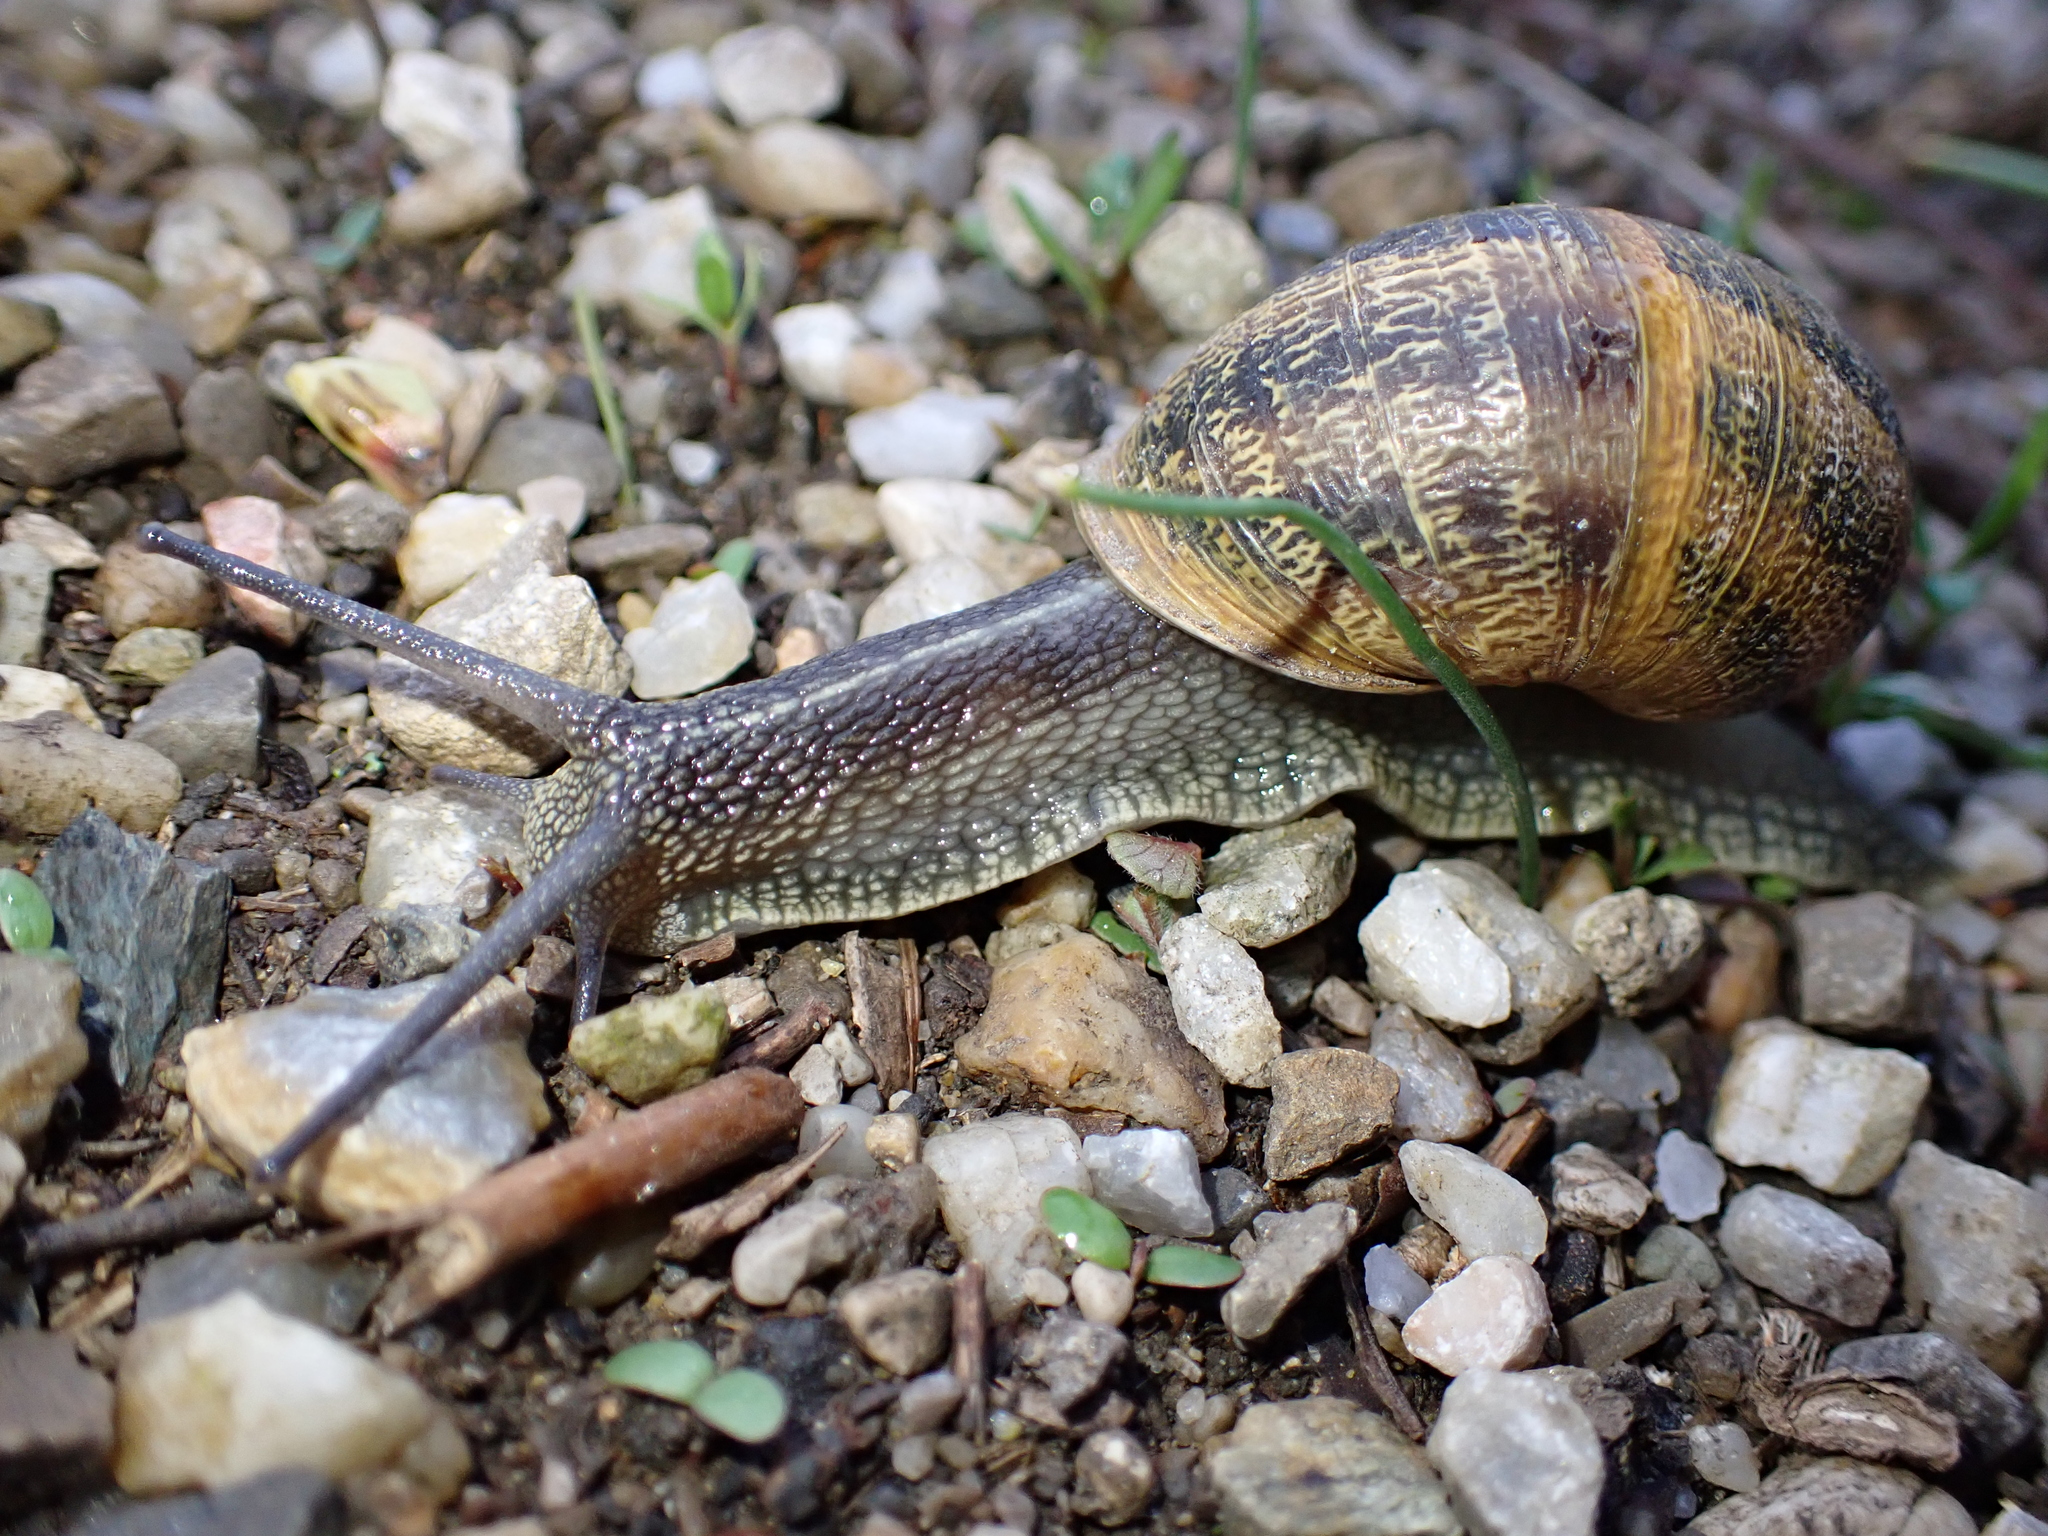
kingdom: Animalia
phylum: Mollusca
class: Gastropoda
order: Stylommatophora
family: Helicidae
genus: Cornu
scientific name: Cornu aspersum
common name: Brown garden snail
